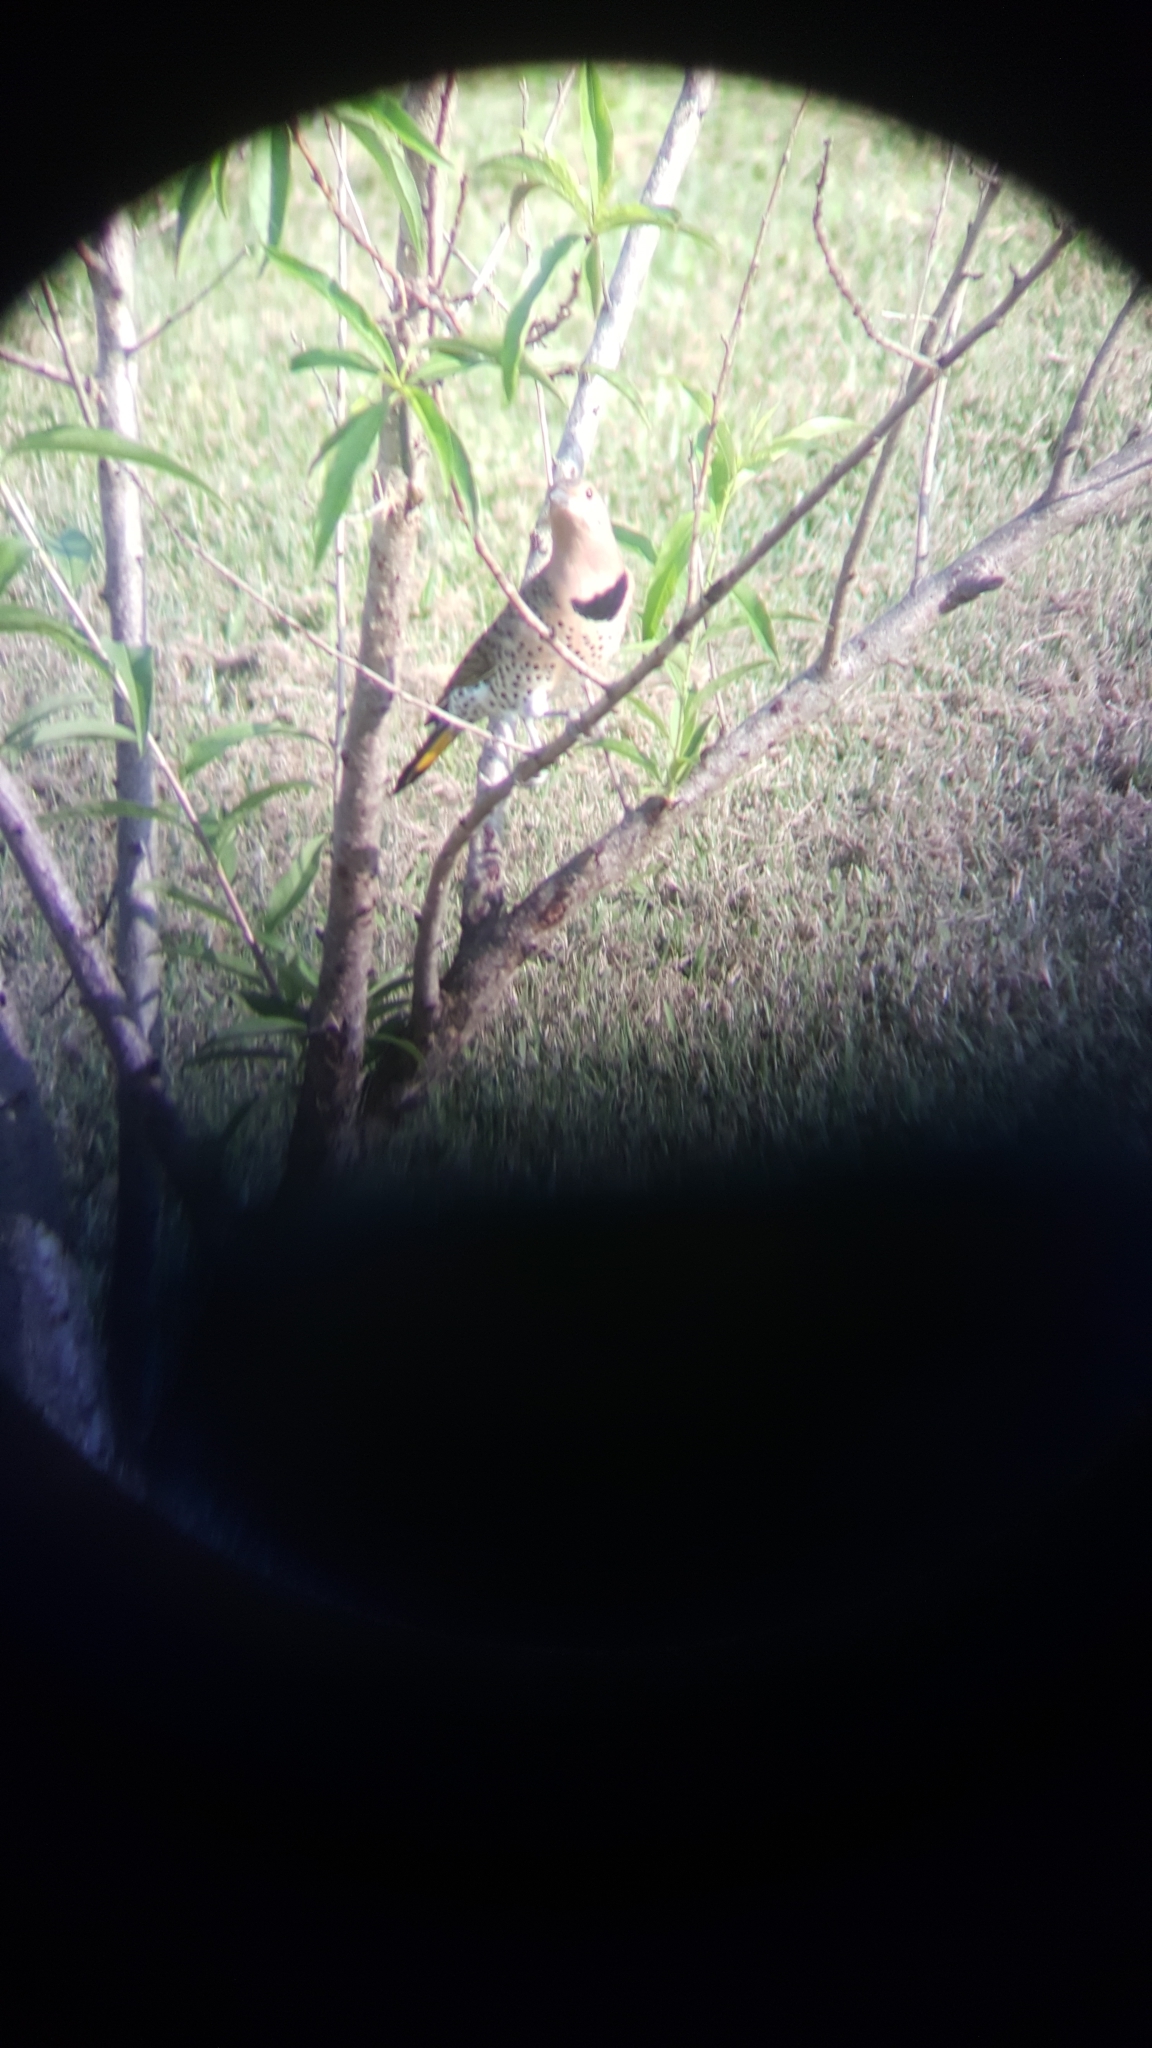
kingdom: Animalia
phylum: Chordata
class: Aves
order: Piciformes
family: Picidae
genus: Colaptes
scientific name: Colaptes auratus
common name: Northern flicker
